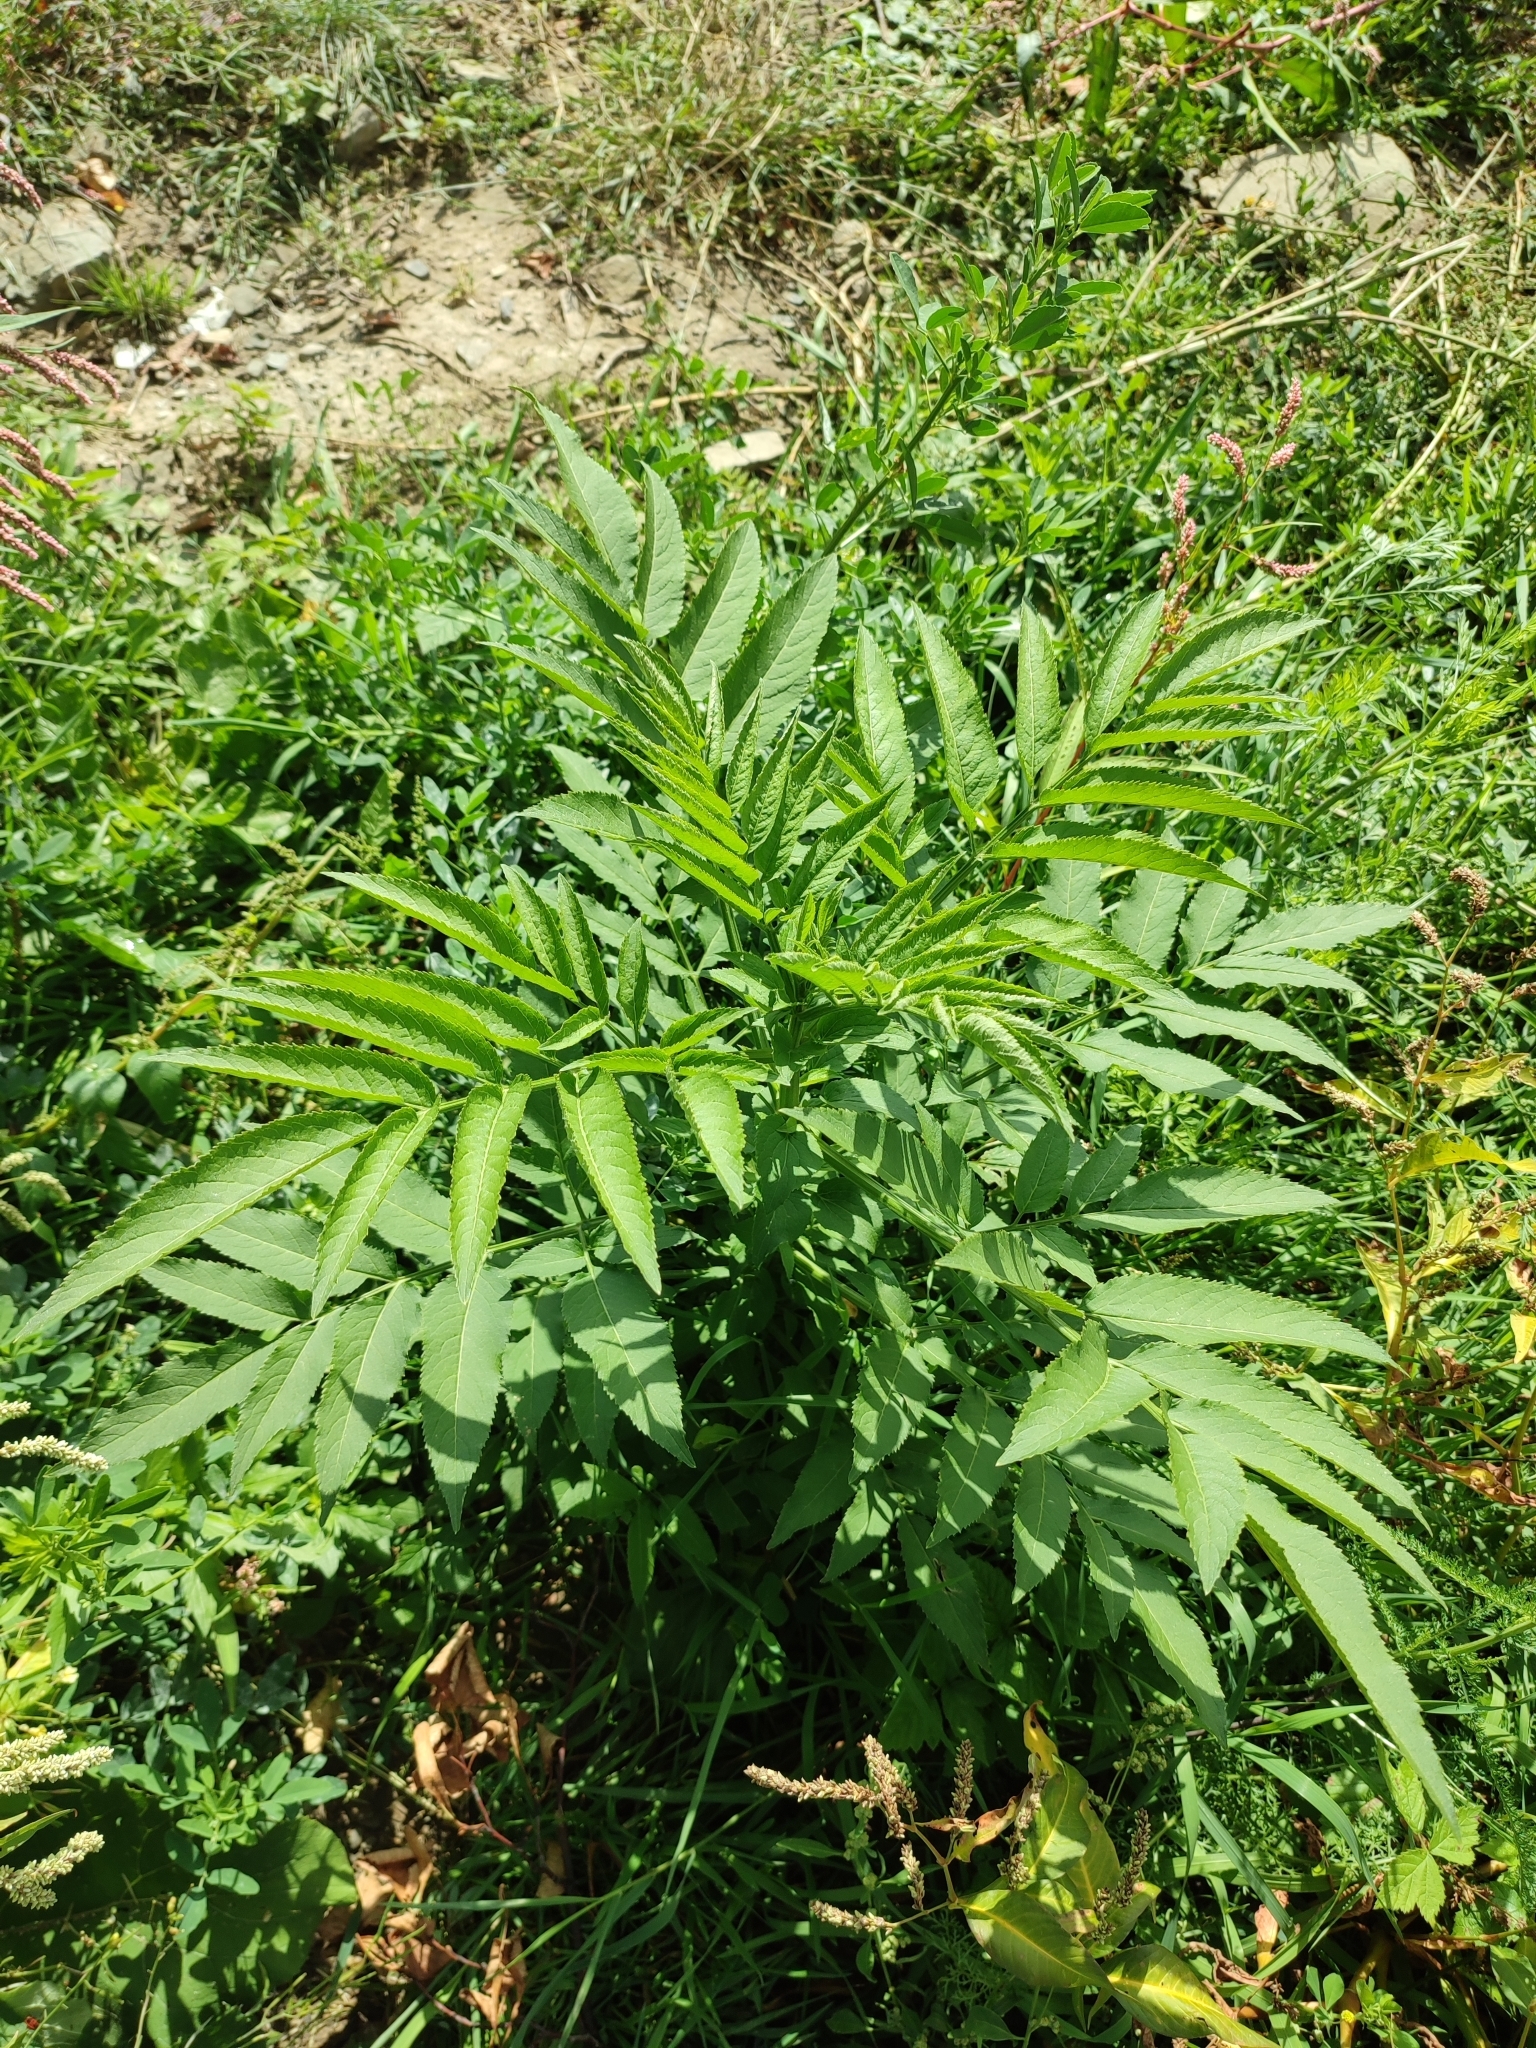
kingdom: Plantae
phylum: Tracheophyta
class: Magnoliopsida
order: Dipsacales
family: Viburnaceae
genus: Sambucus
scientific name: Sambucus ebulus
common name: Dwarf elder
